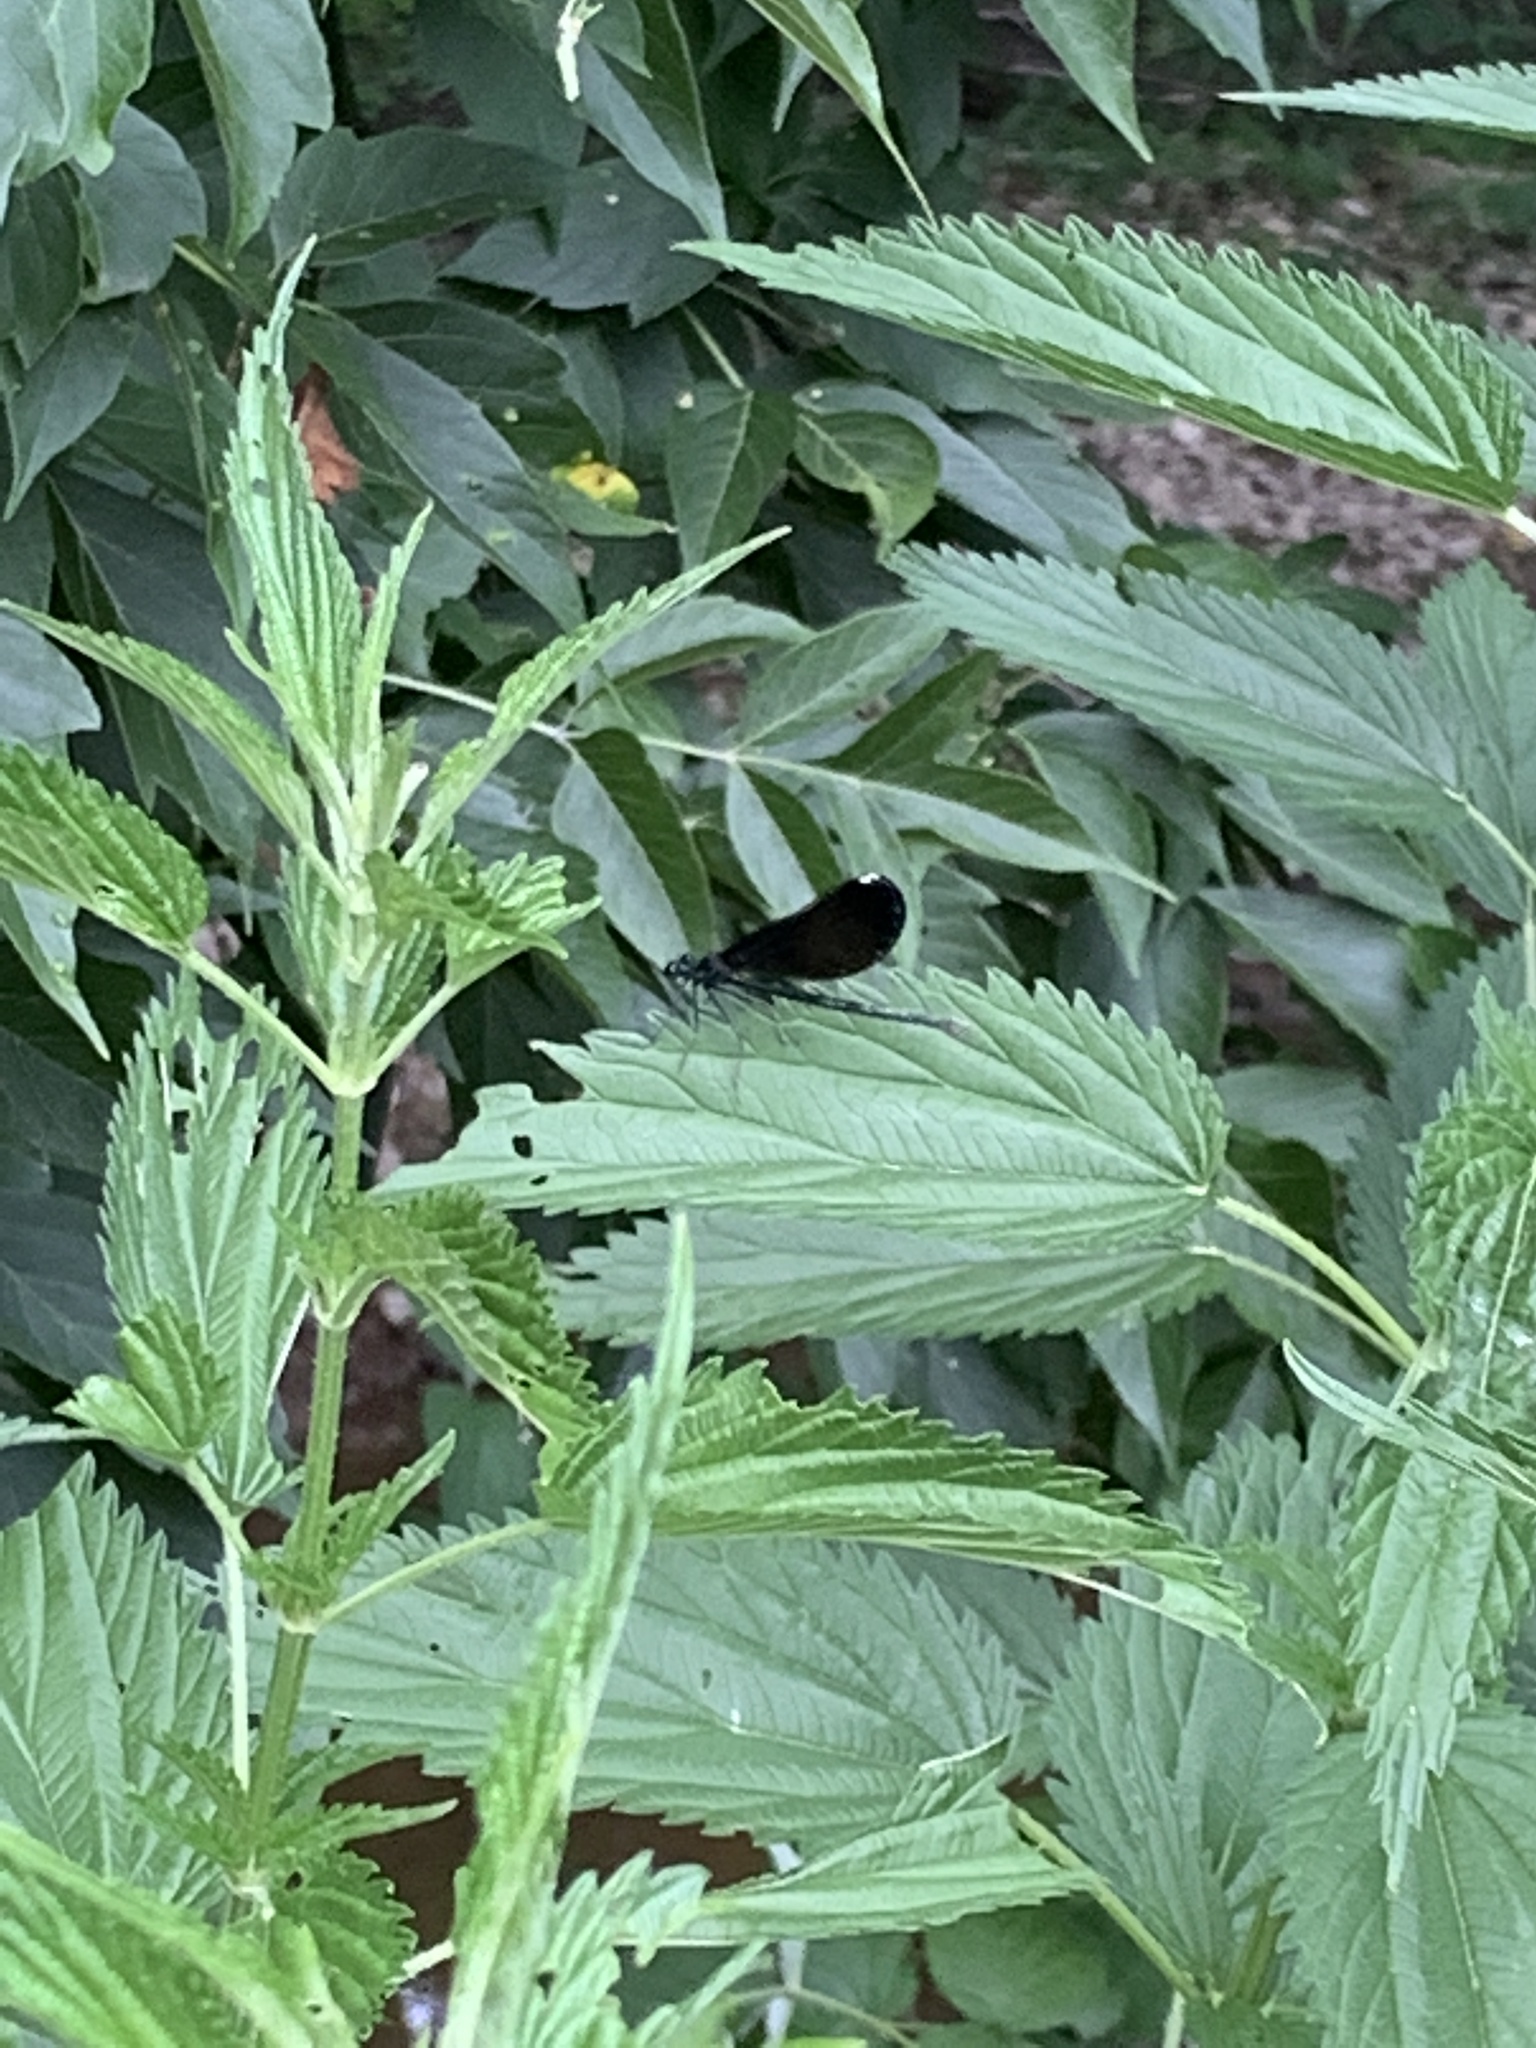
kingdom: Animalia
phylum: Arthropoda
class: Insecta
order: Odonata
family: Calopterygidae
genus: Calopteryx
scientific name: Calopteryx maculata
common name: Ebony jewelwing
